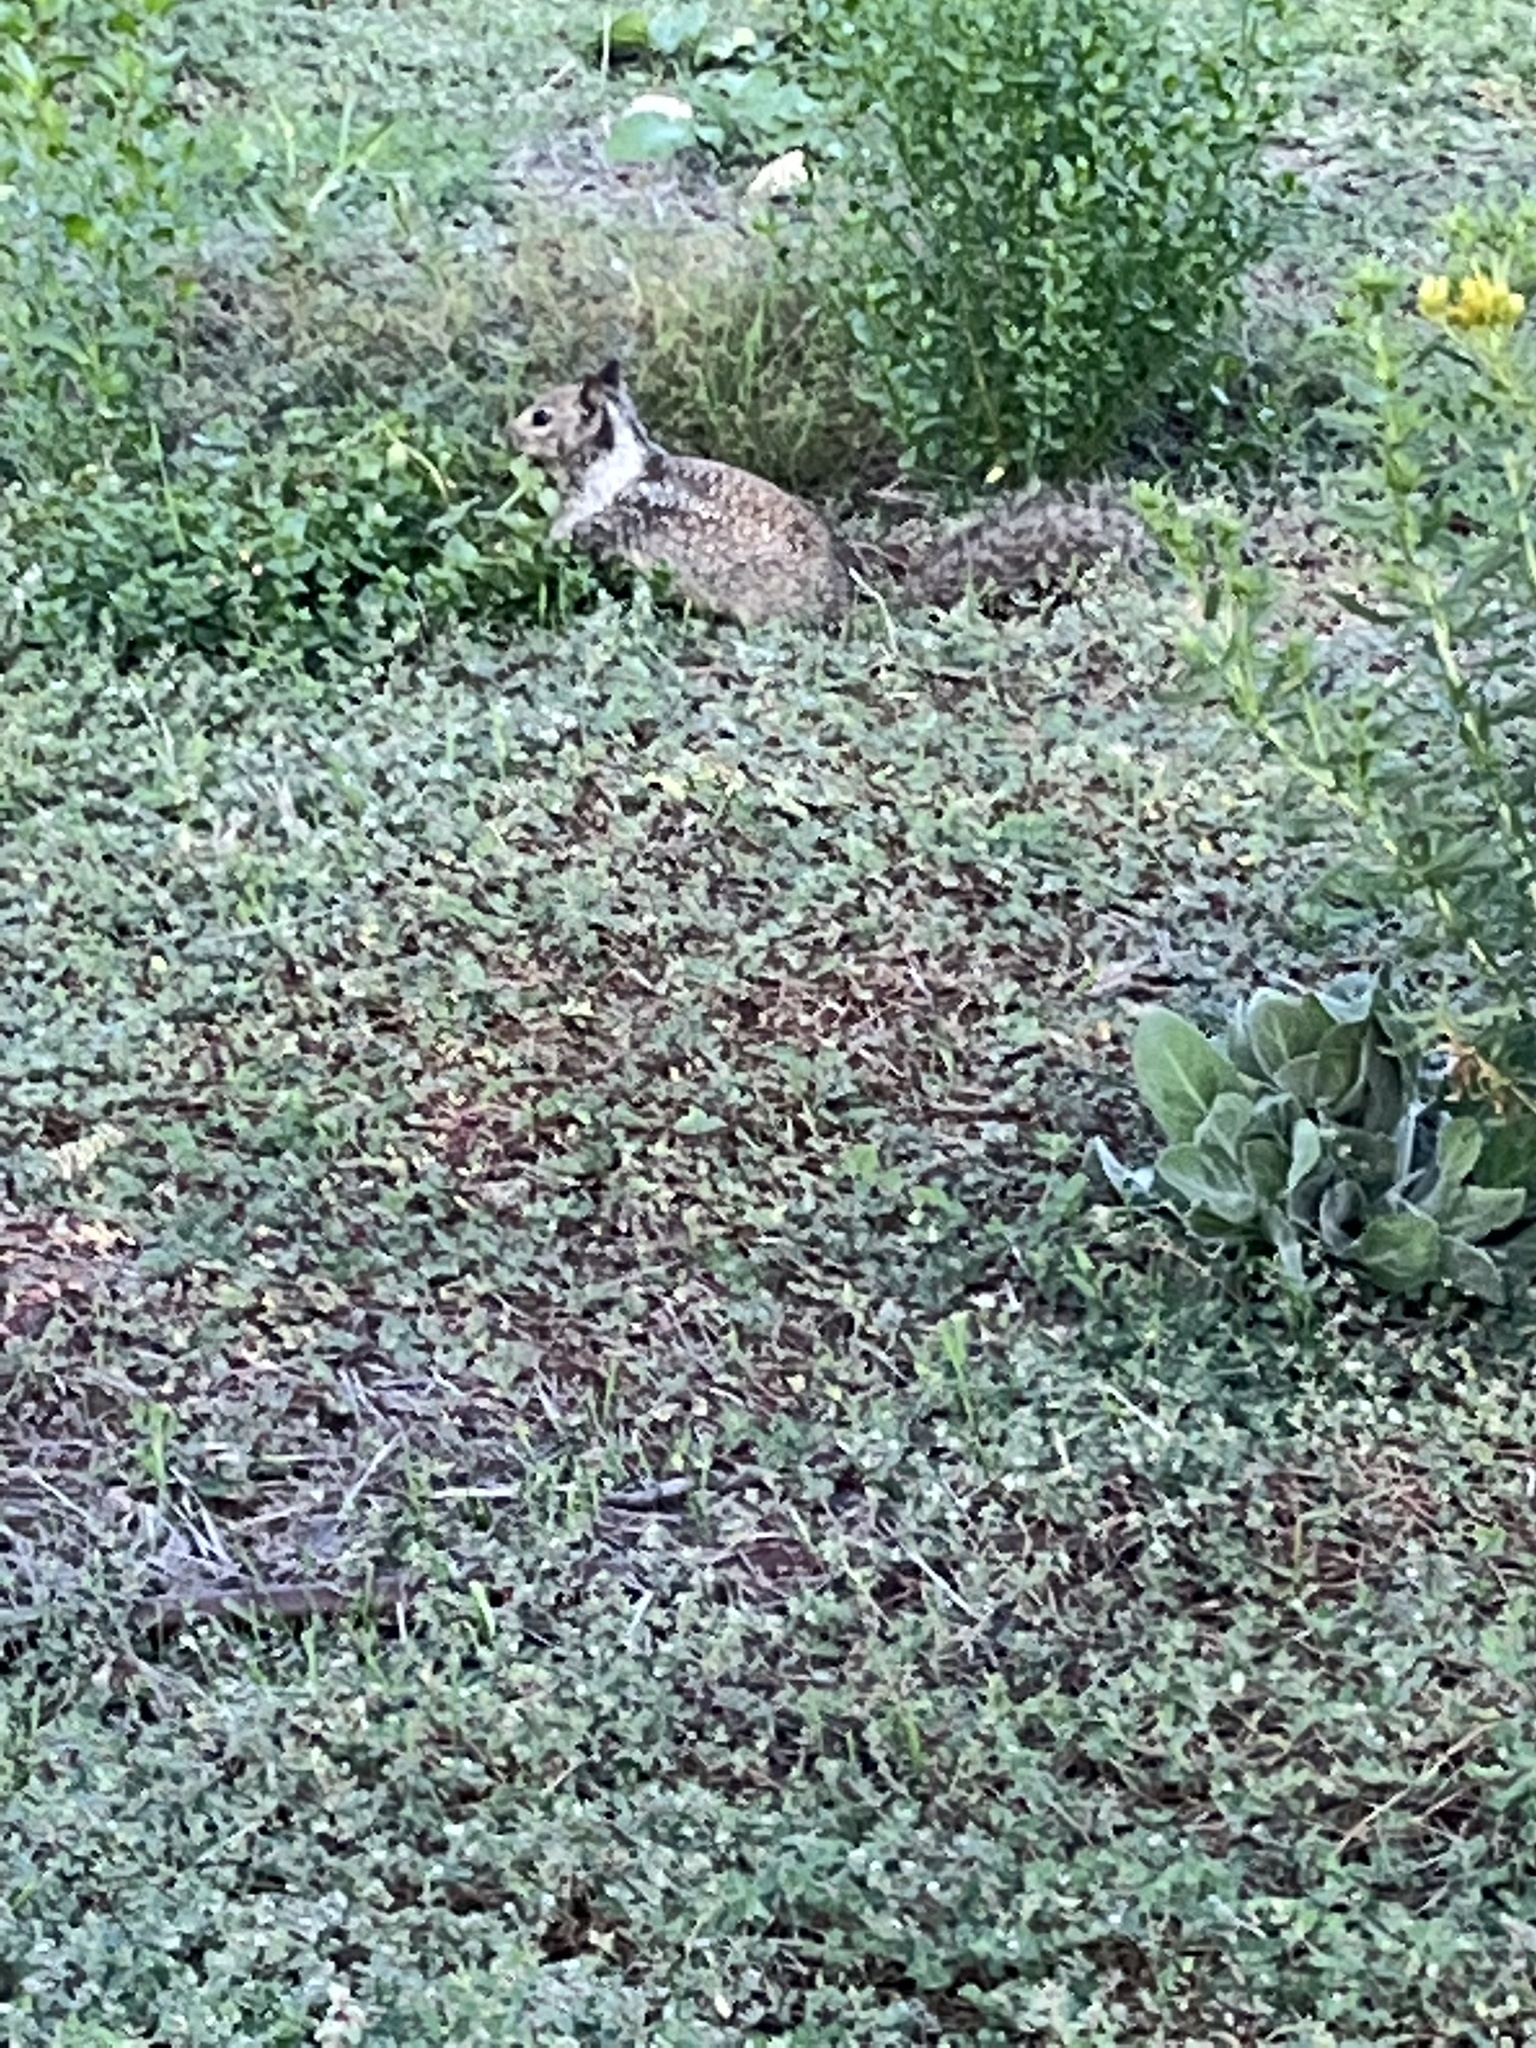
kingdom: Animalia
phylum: Chordata
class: Mammalia
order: Rodentia
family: Sciuridae
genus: Otospermophilus
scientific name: Otospermophilus beecheyi
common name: California ground squirrel
